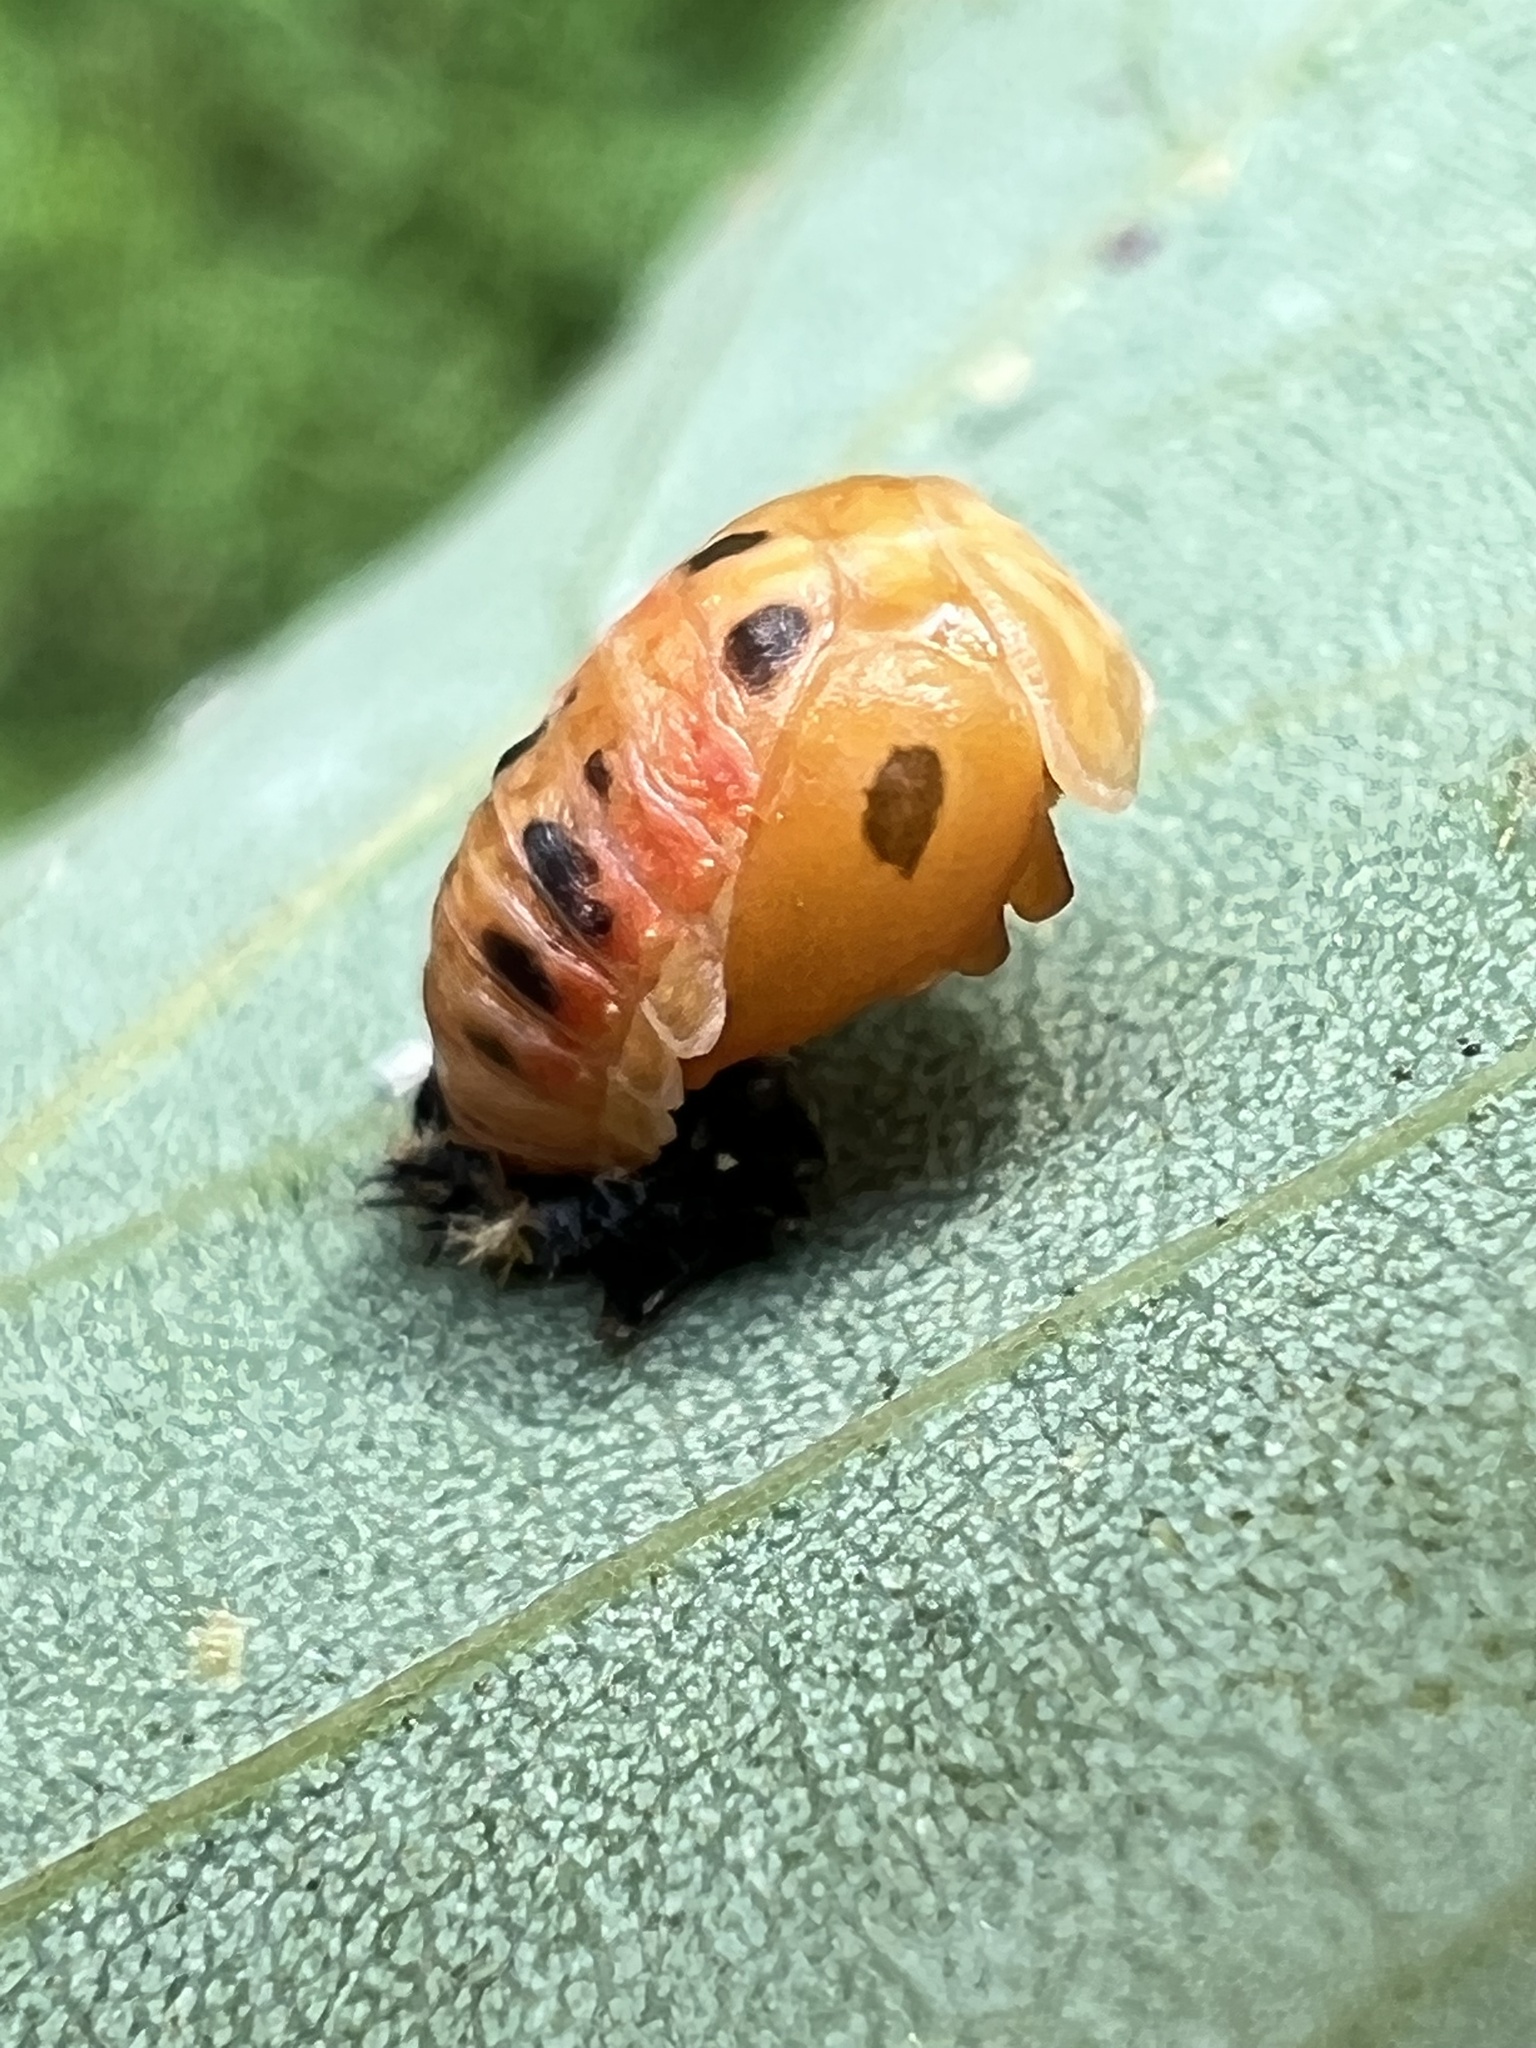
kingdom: Animalia
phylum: Arthropoda
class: Insecta
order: Coleoptera
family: Coccinellidae
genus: Harmonia
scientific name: Harmonia axyridis
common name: Harlequin ladybird
